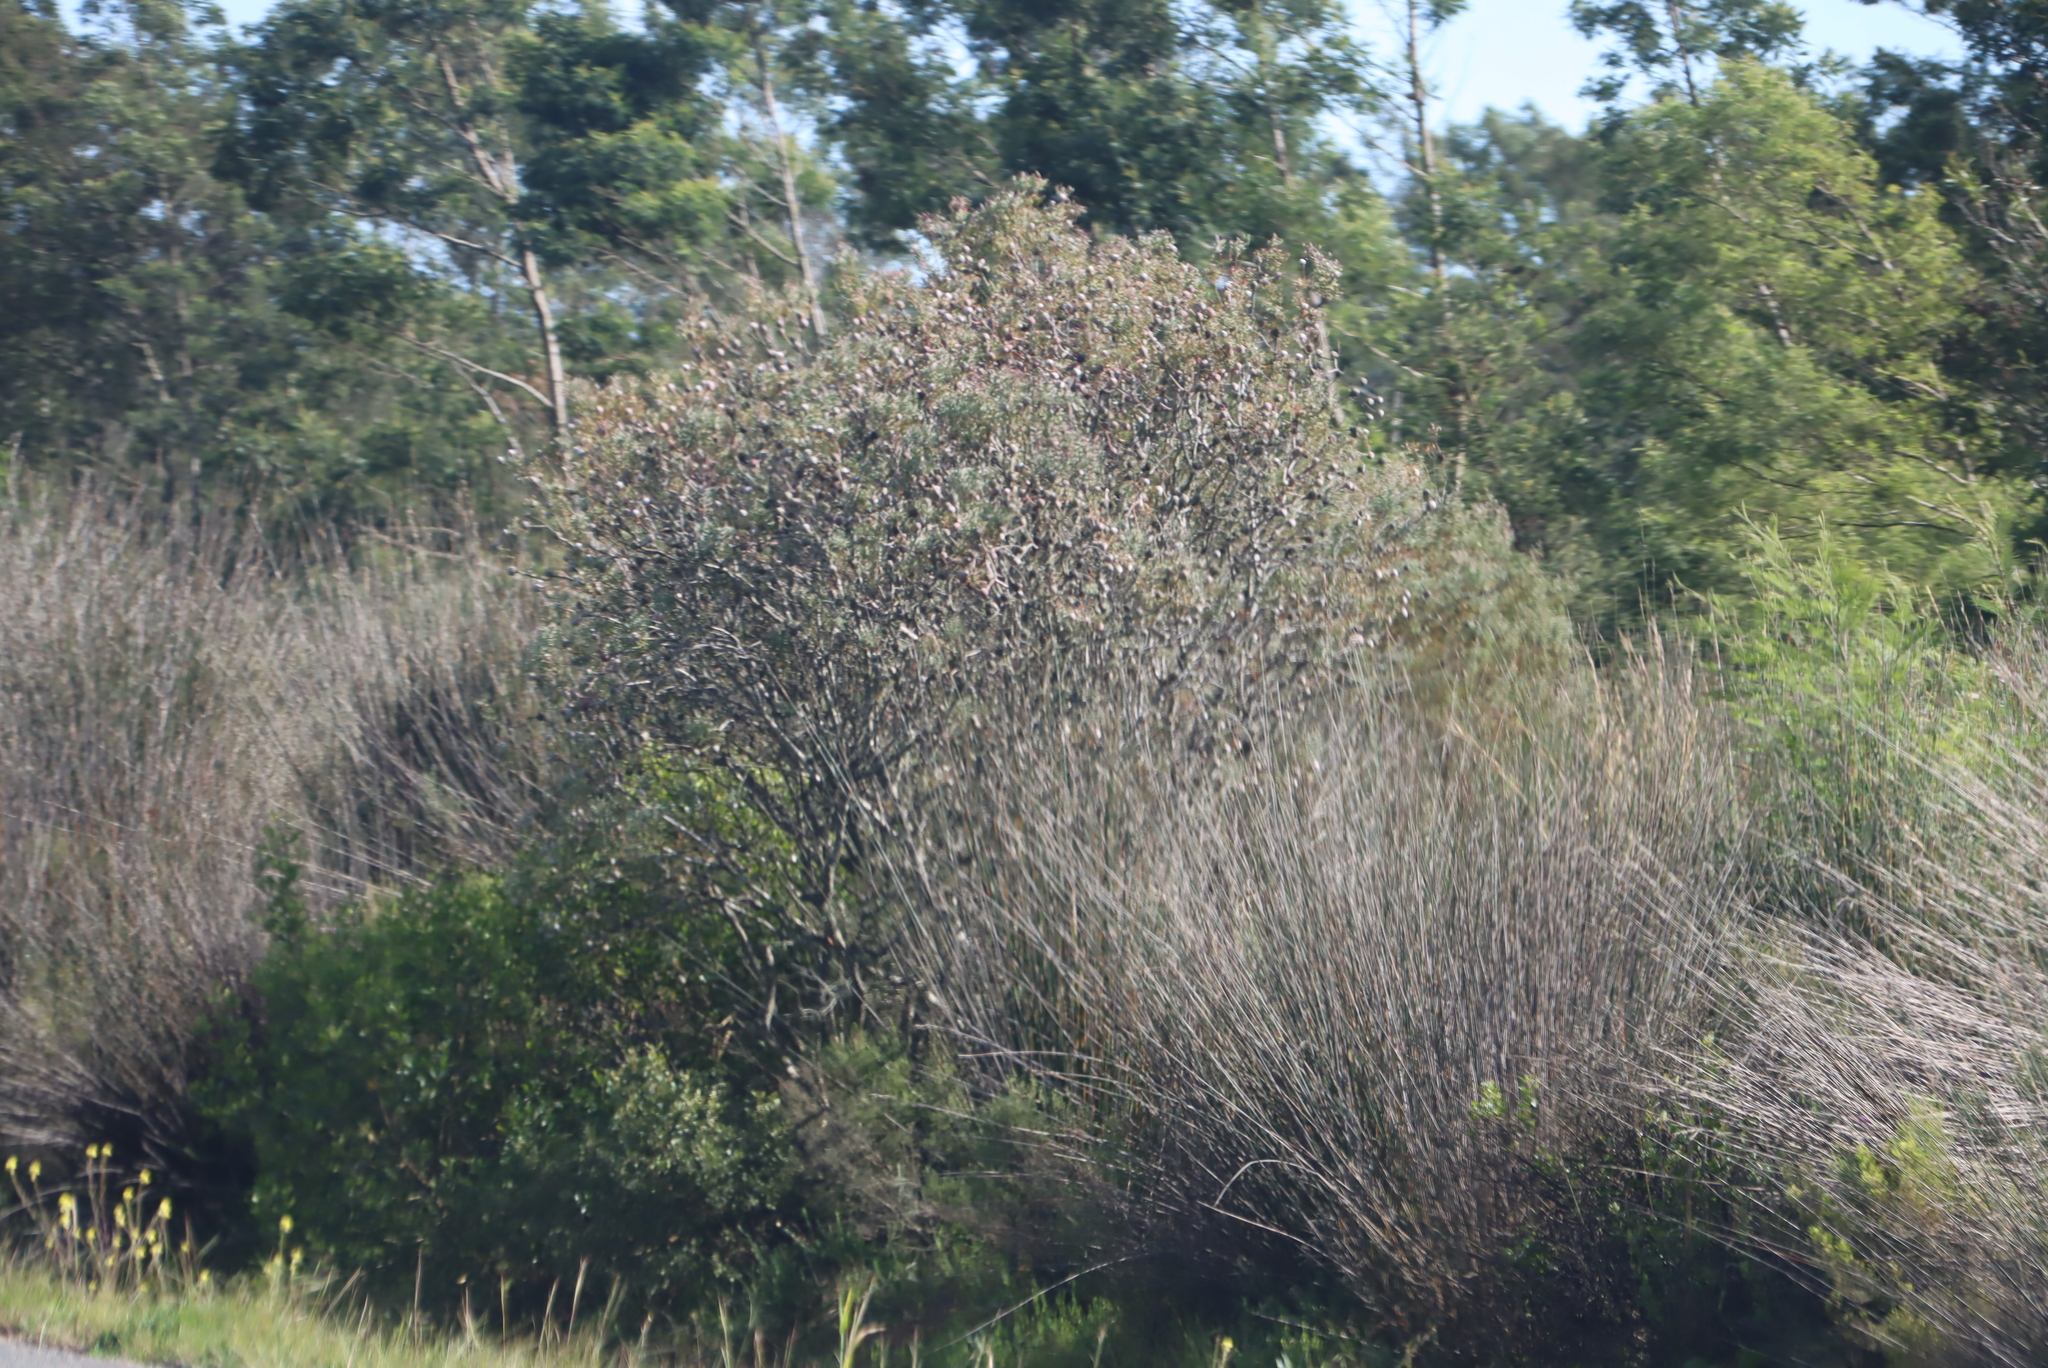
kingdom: Plantae
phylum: Tracheophyta
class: Magnoliopsida
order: Proteales
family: Proteaceae
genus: Leucadendron
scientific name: Leucadendron galpinii
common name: Hairless conebush
